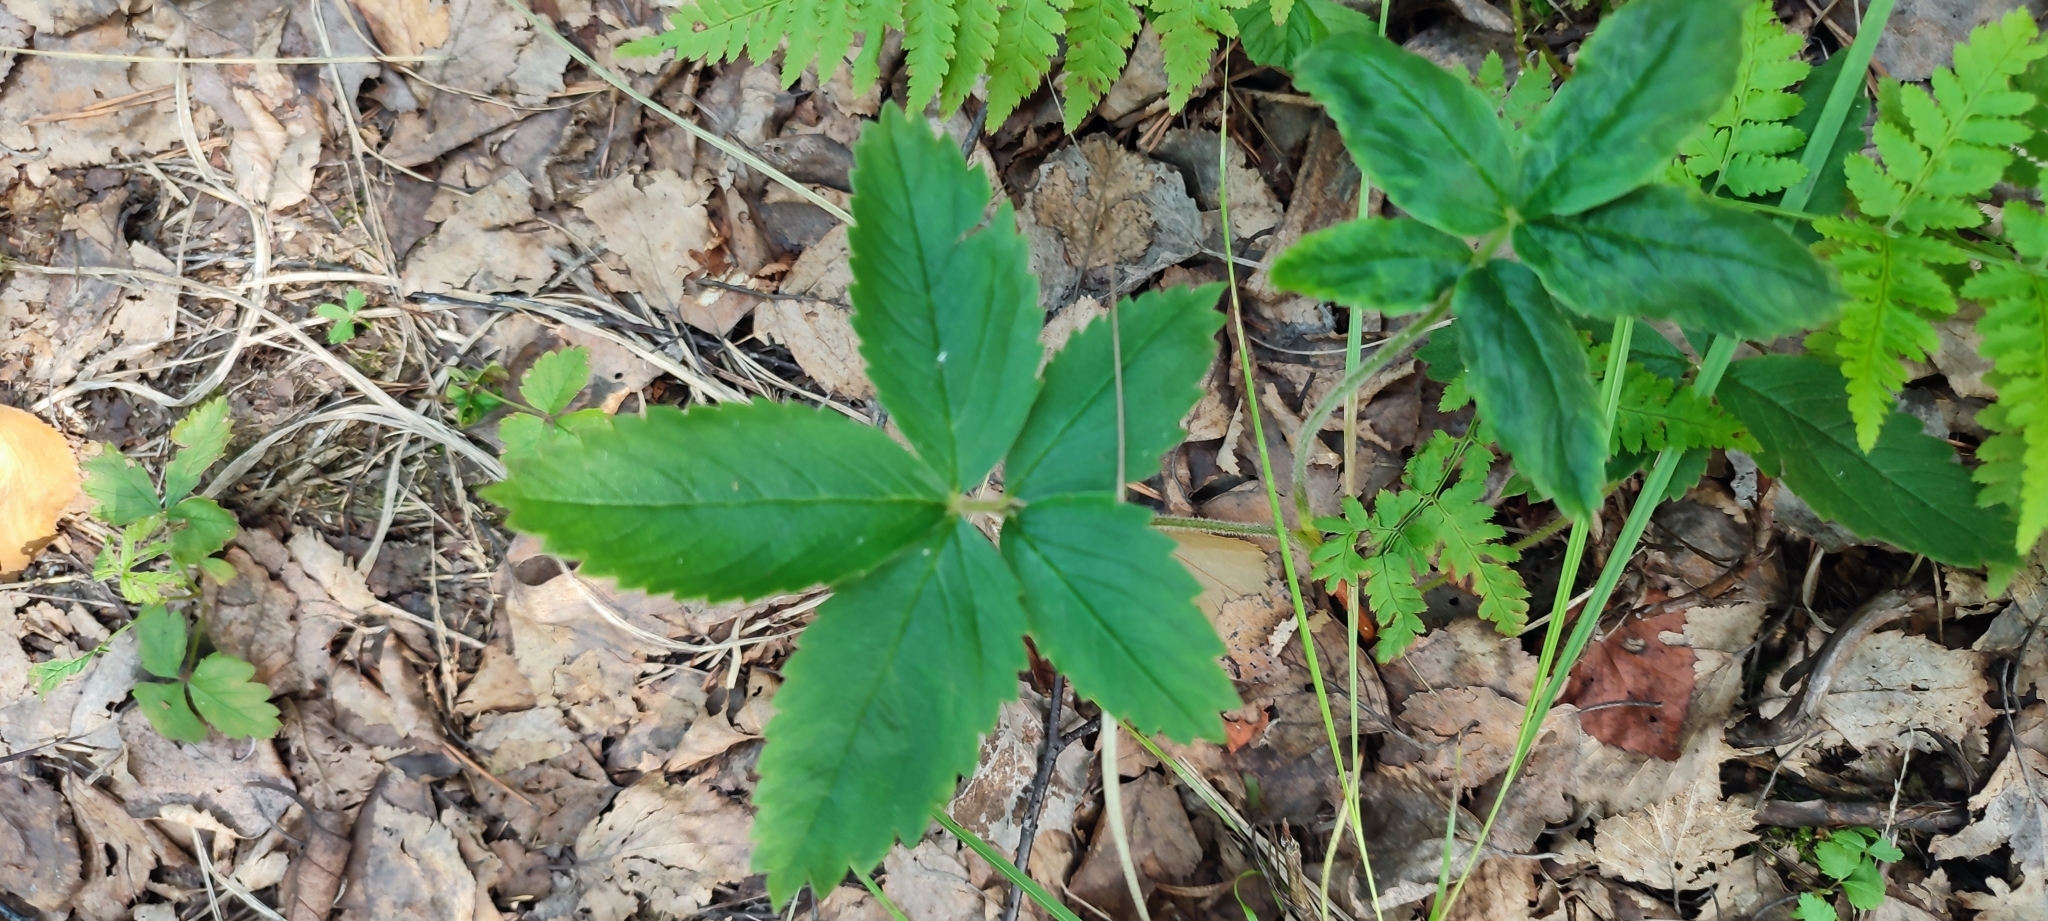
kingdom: Plantae
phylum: Tracheophyta
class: Magnoliopsida
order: Rosales
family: Rosaceae
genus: Comarum
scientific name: Comarum palustre
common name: Marsh cinquefoil
